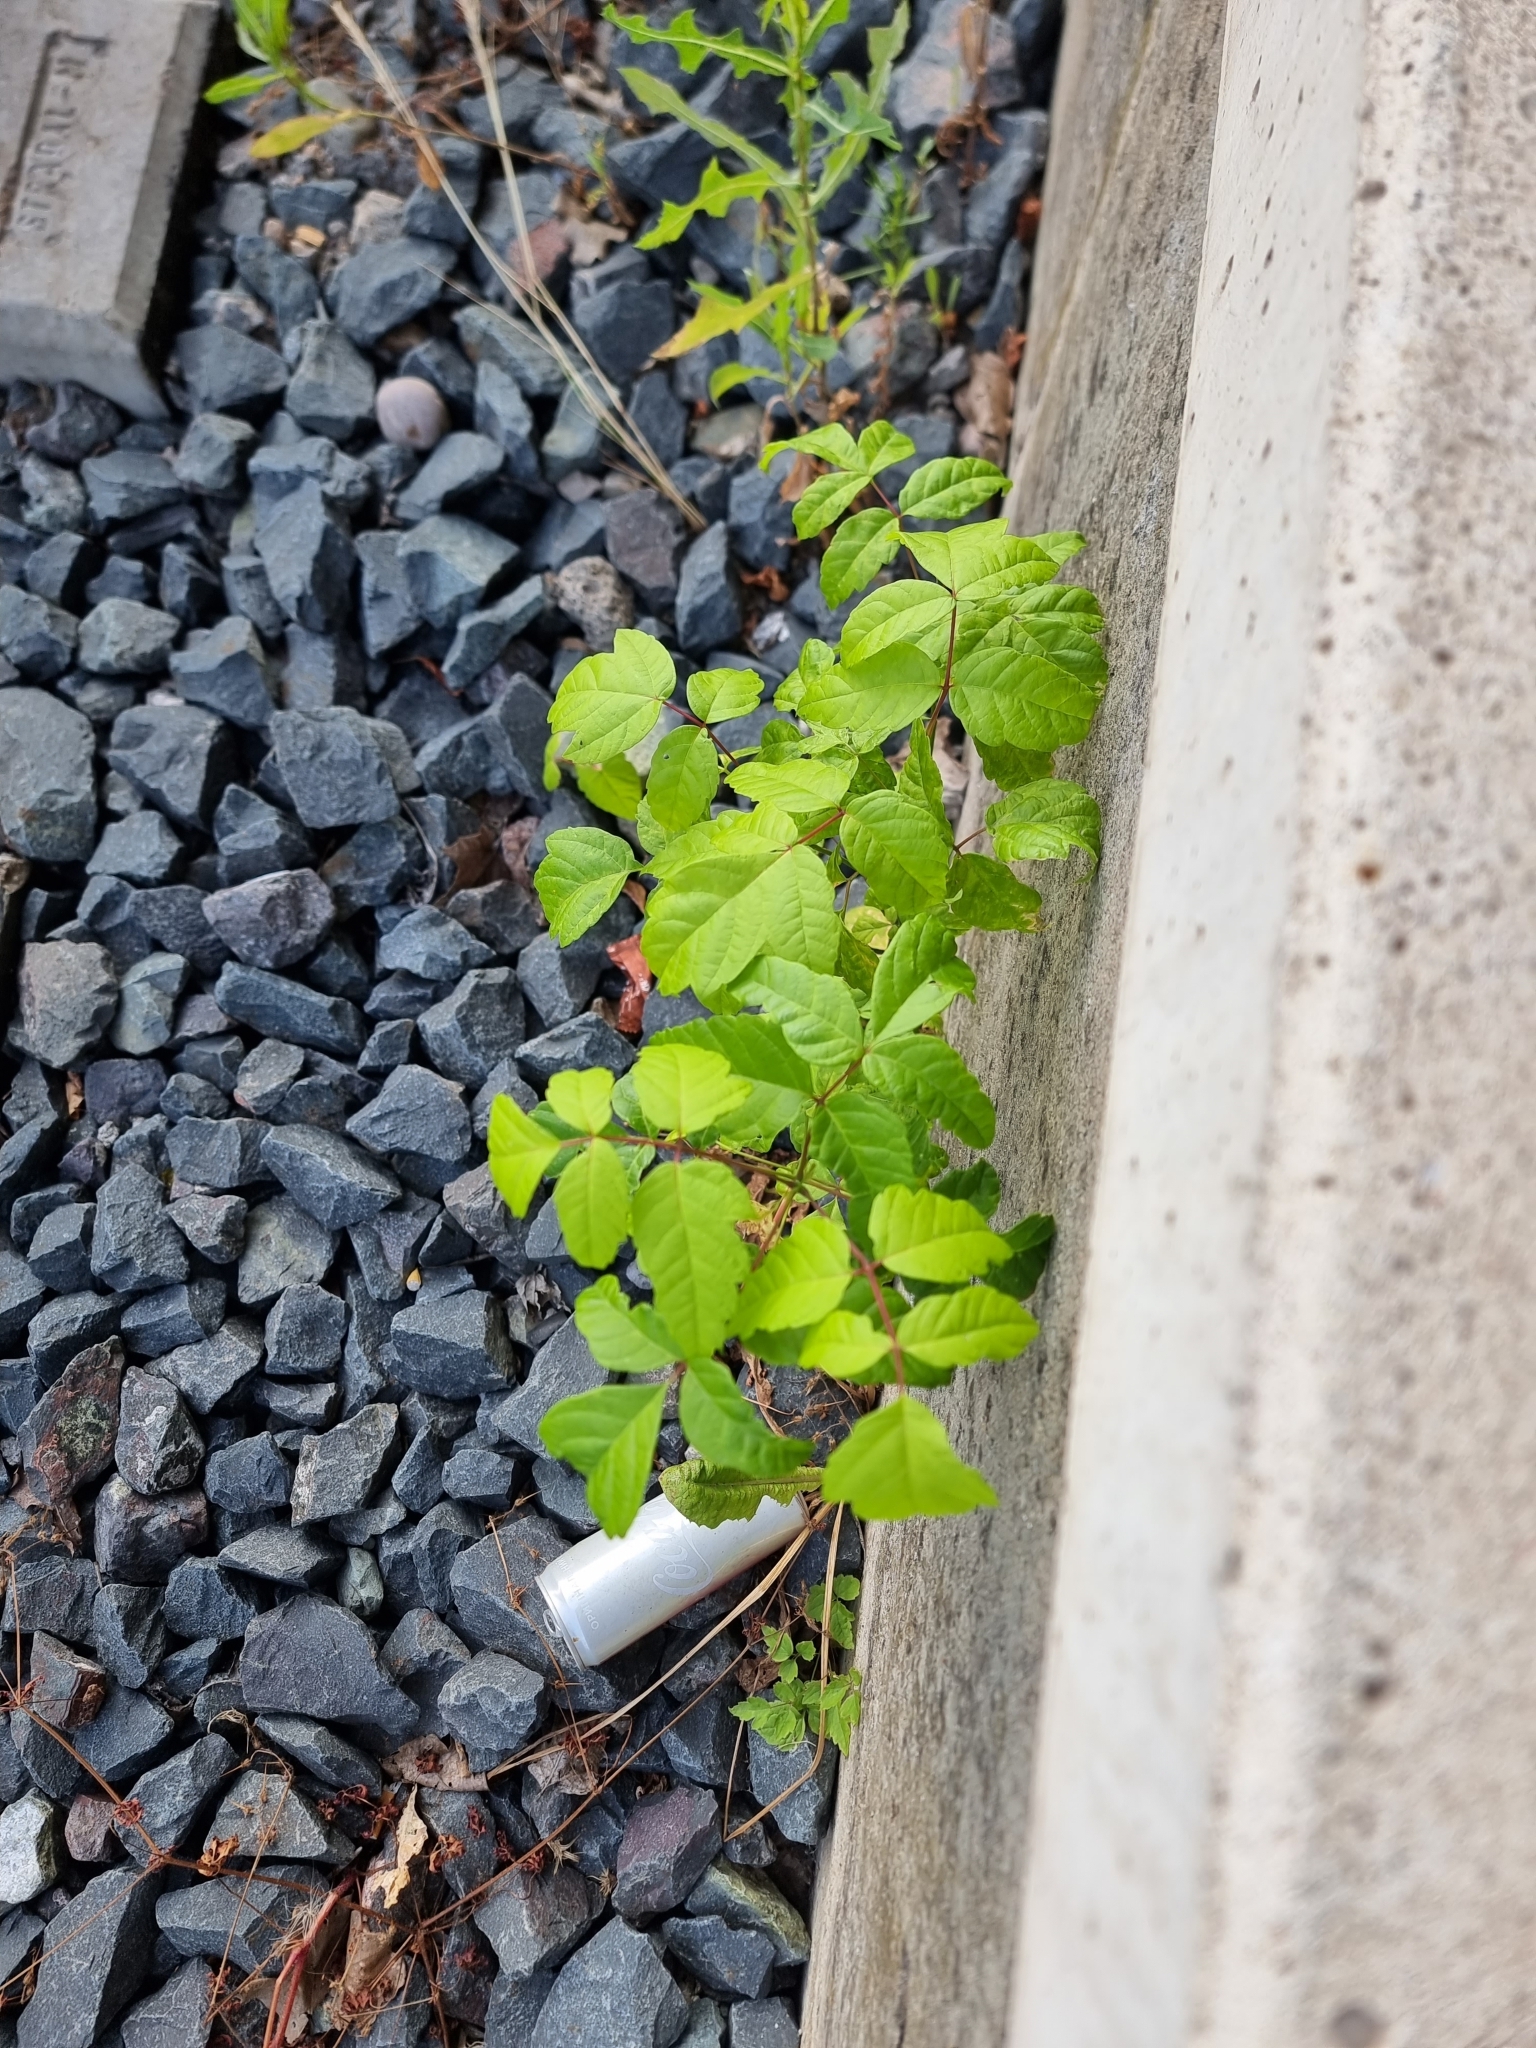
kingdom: Plantae
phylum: Tracheophyta
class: Magnoliopsida
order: Sapindales
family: Sapindaceae
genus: Acer
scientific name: Acer negundo
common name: Ashleaf maple
